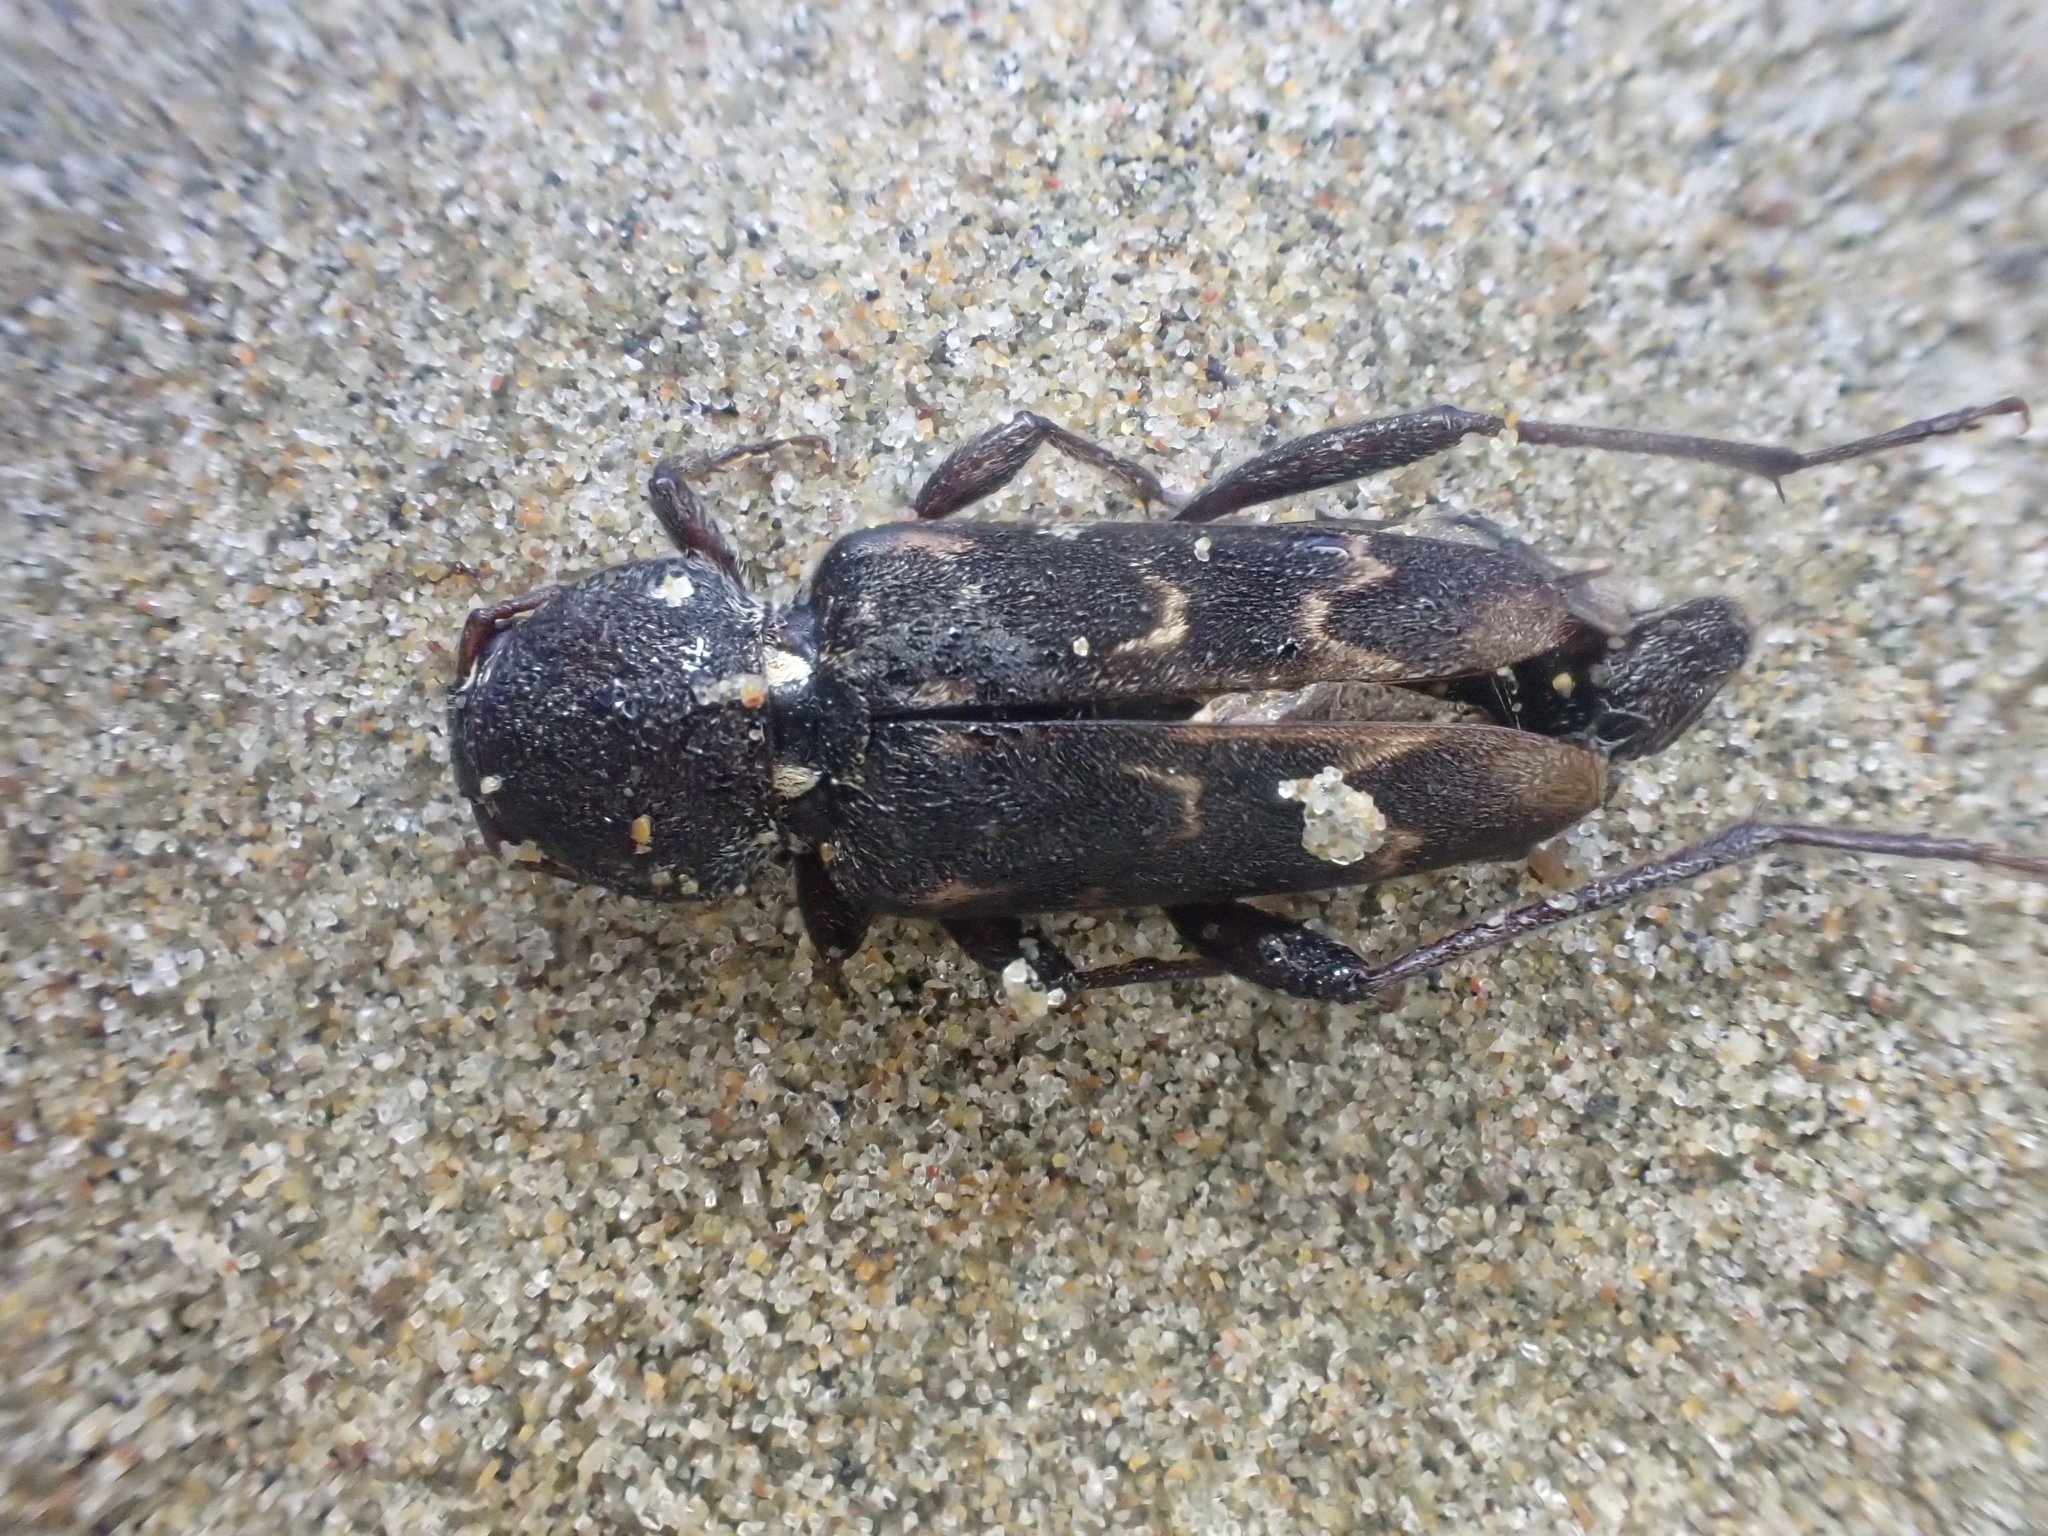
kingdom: Animalia
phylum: Arthropoda
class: Insecta
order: Coleoptera
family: Cerambycidae
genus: Xylotrechus
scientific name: Xylotrechus nauticus
